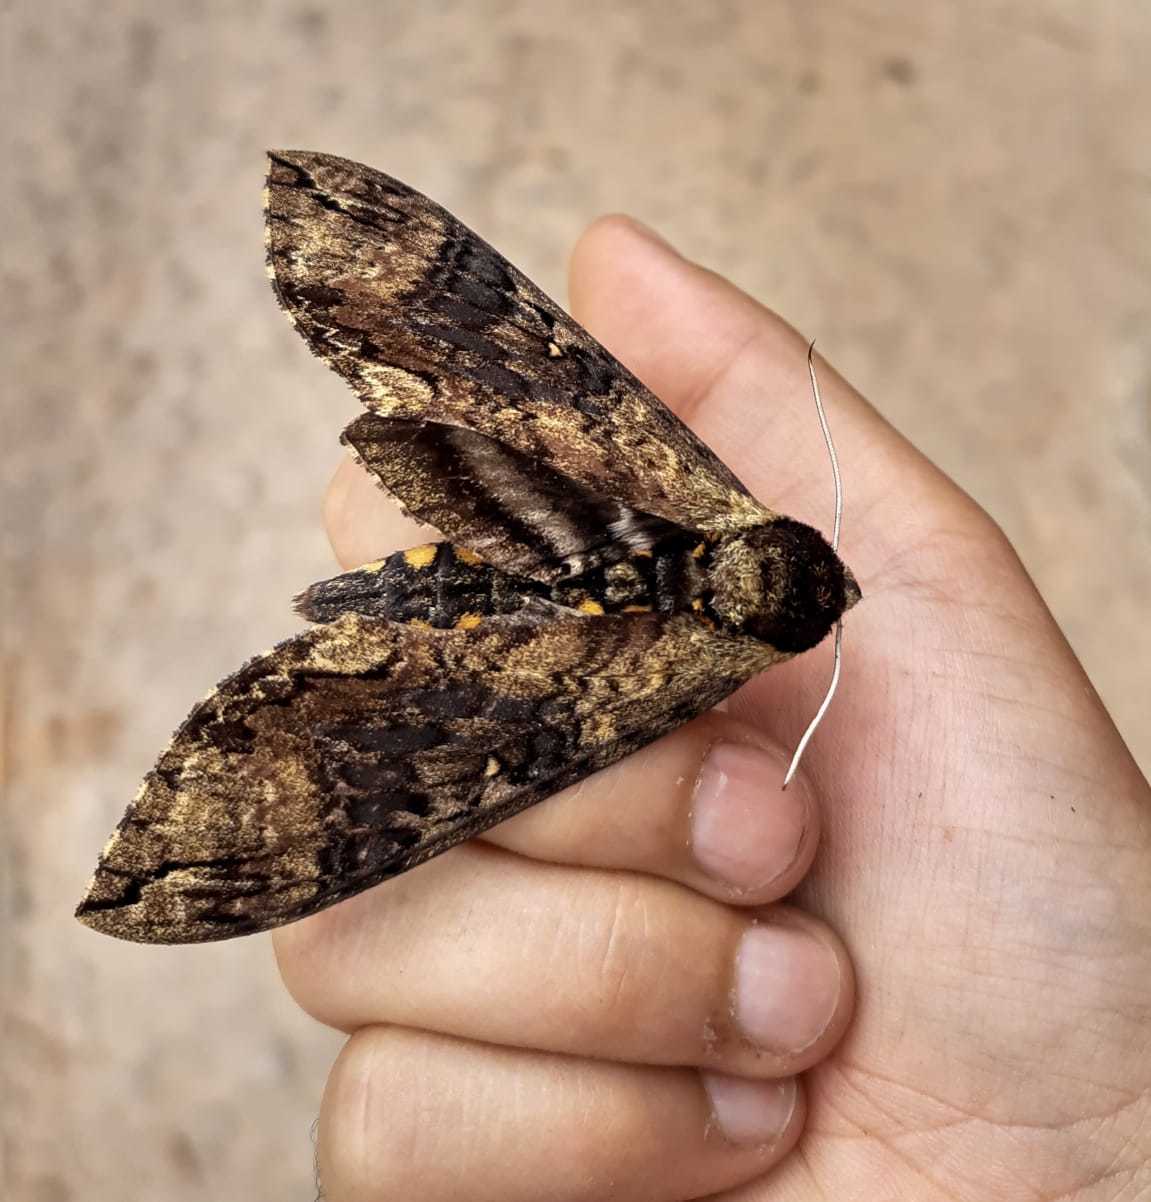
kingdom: Animalia
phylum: Arthropoda
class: Insecta
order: Lepidoptera
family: Sphingidae
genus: Manduca
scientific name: Manduca contracta
